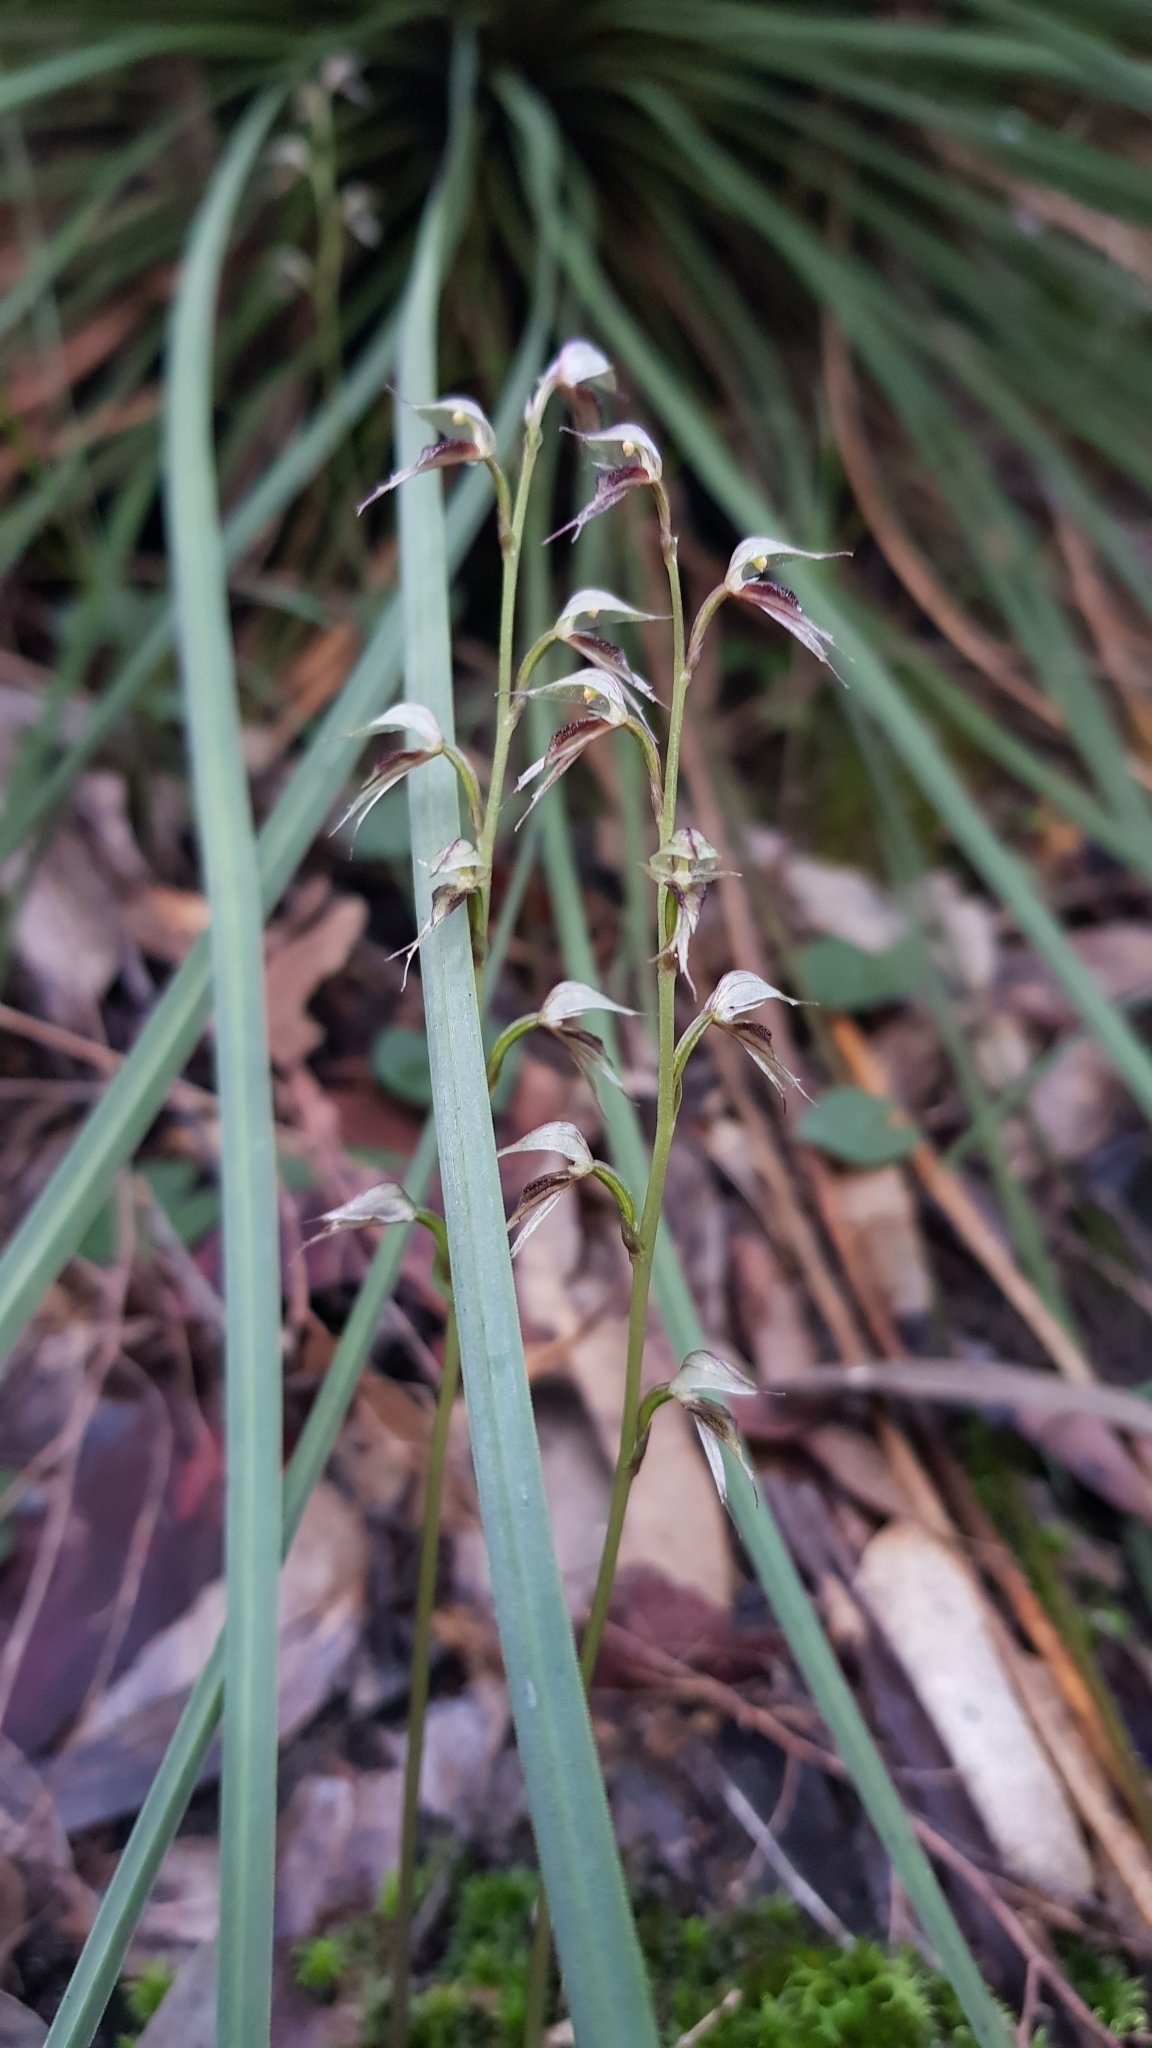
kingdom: Plantae
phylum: Tracheophyta
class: Liliopsida
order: Asparagales
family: Orchidaceae
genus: Acianthus
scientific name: Acianthus fornicatus
